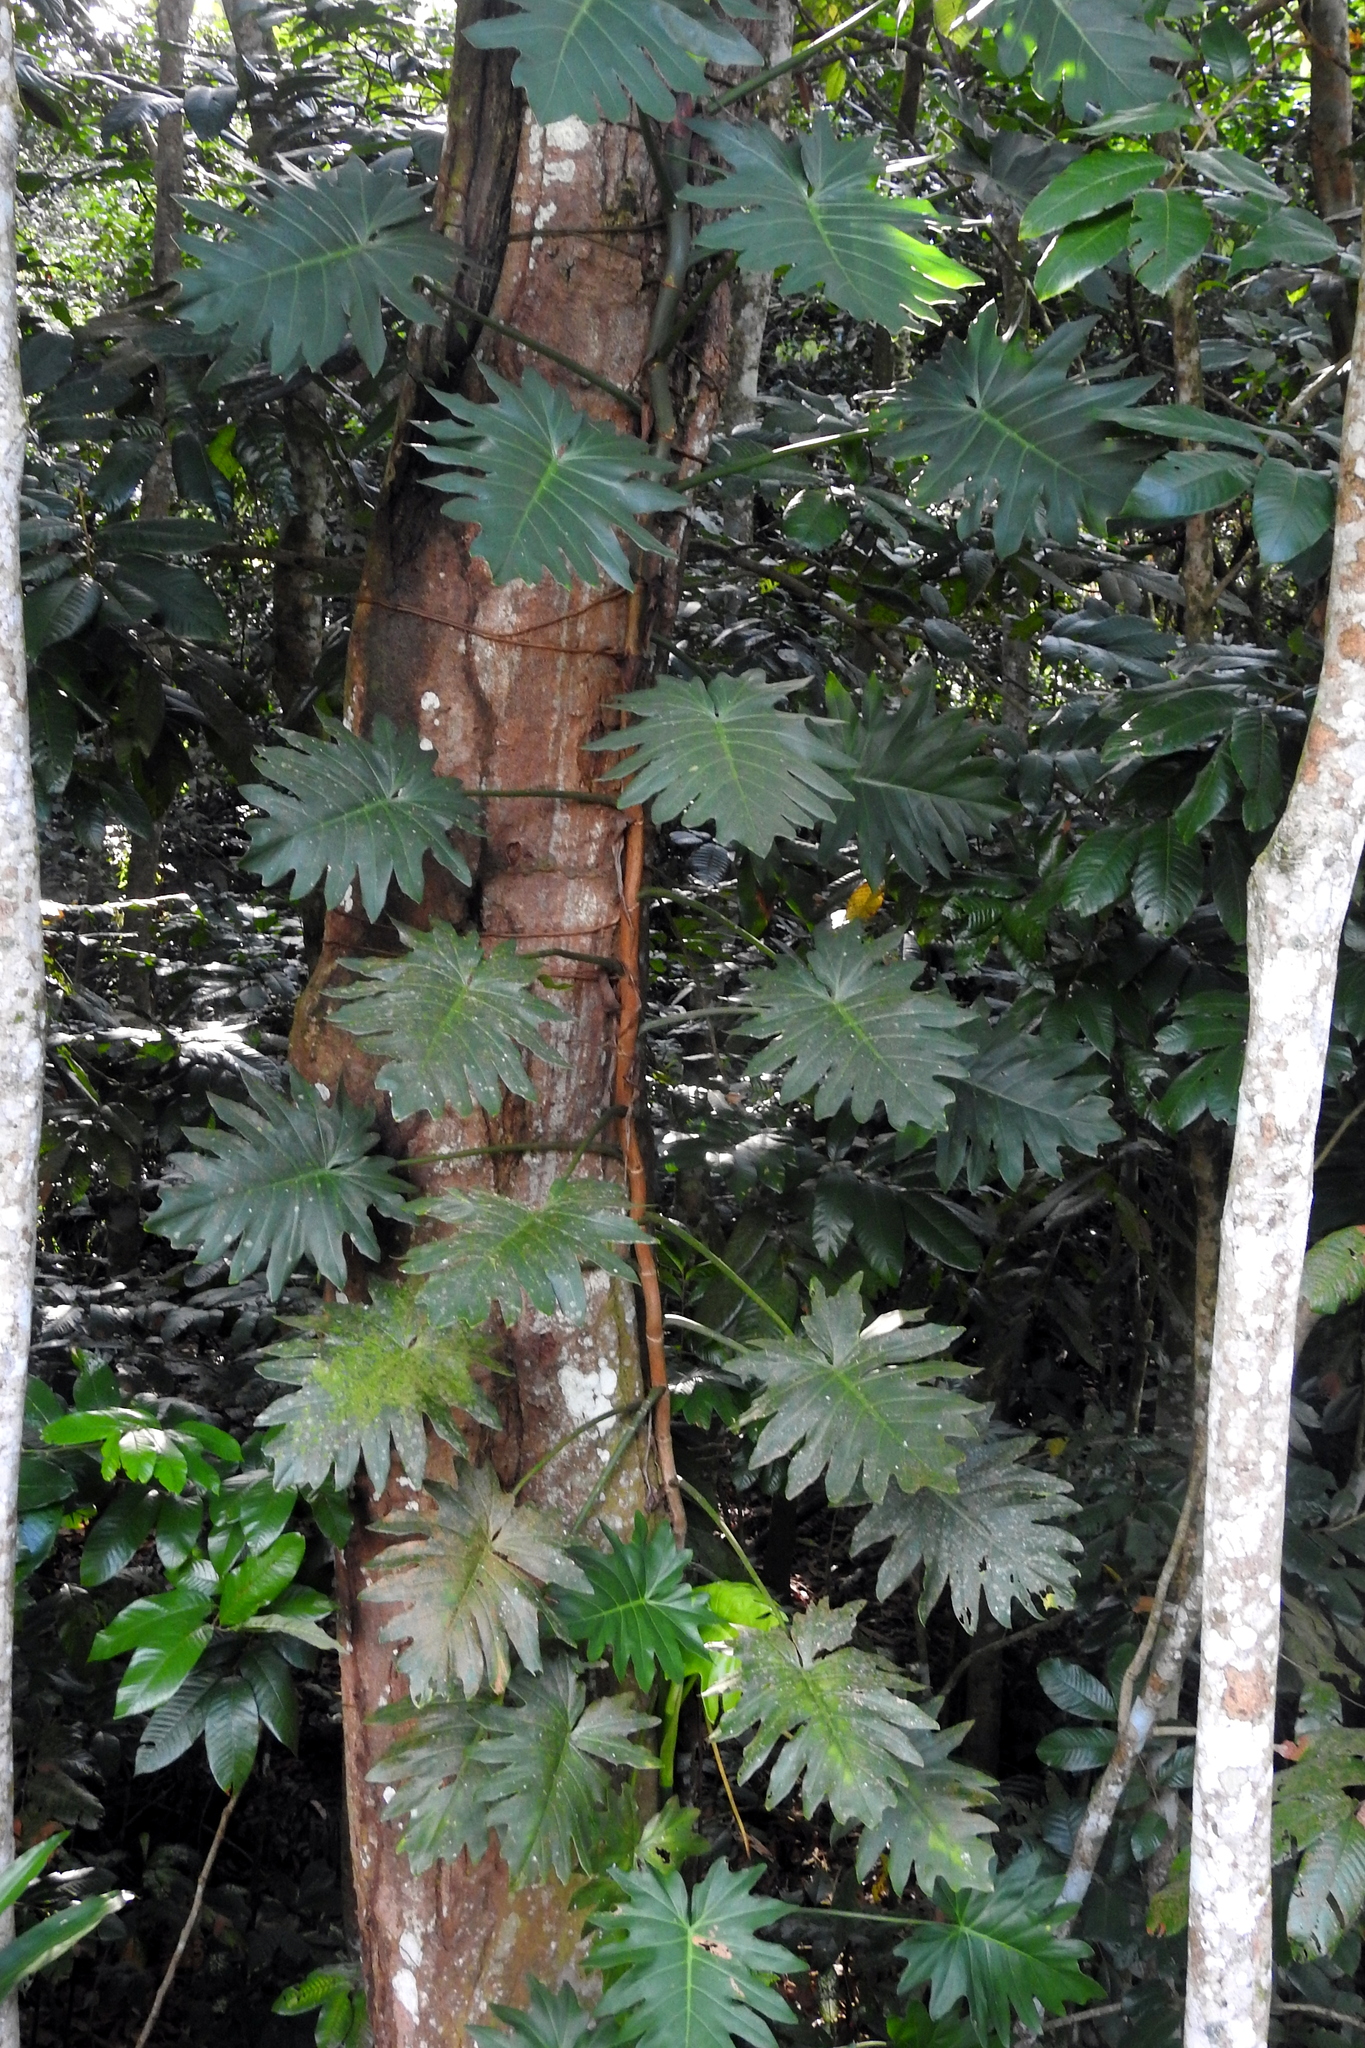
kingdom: Plantae
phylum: Tracheophyta
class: Liliopsida
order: Alismatales
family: Araceae
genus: Philodendron
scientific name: Philodendron lacerum
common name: Philodendron
